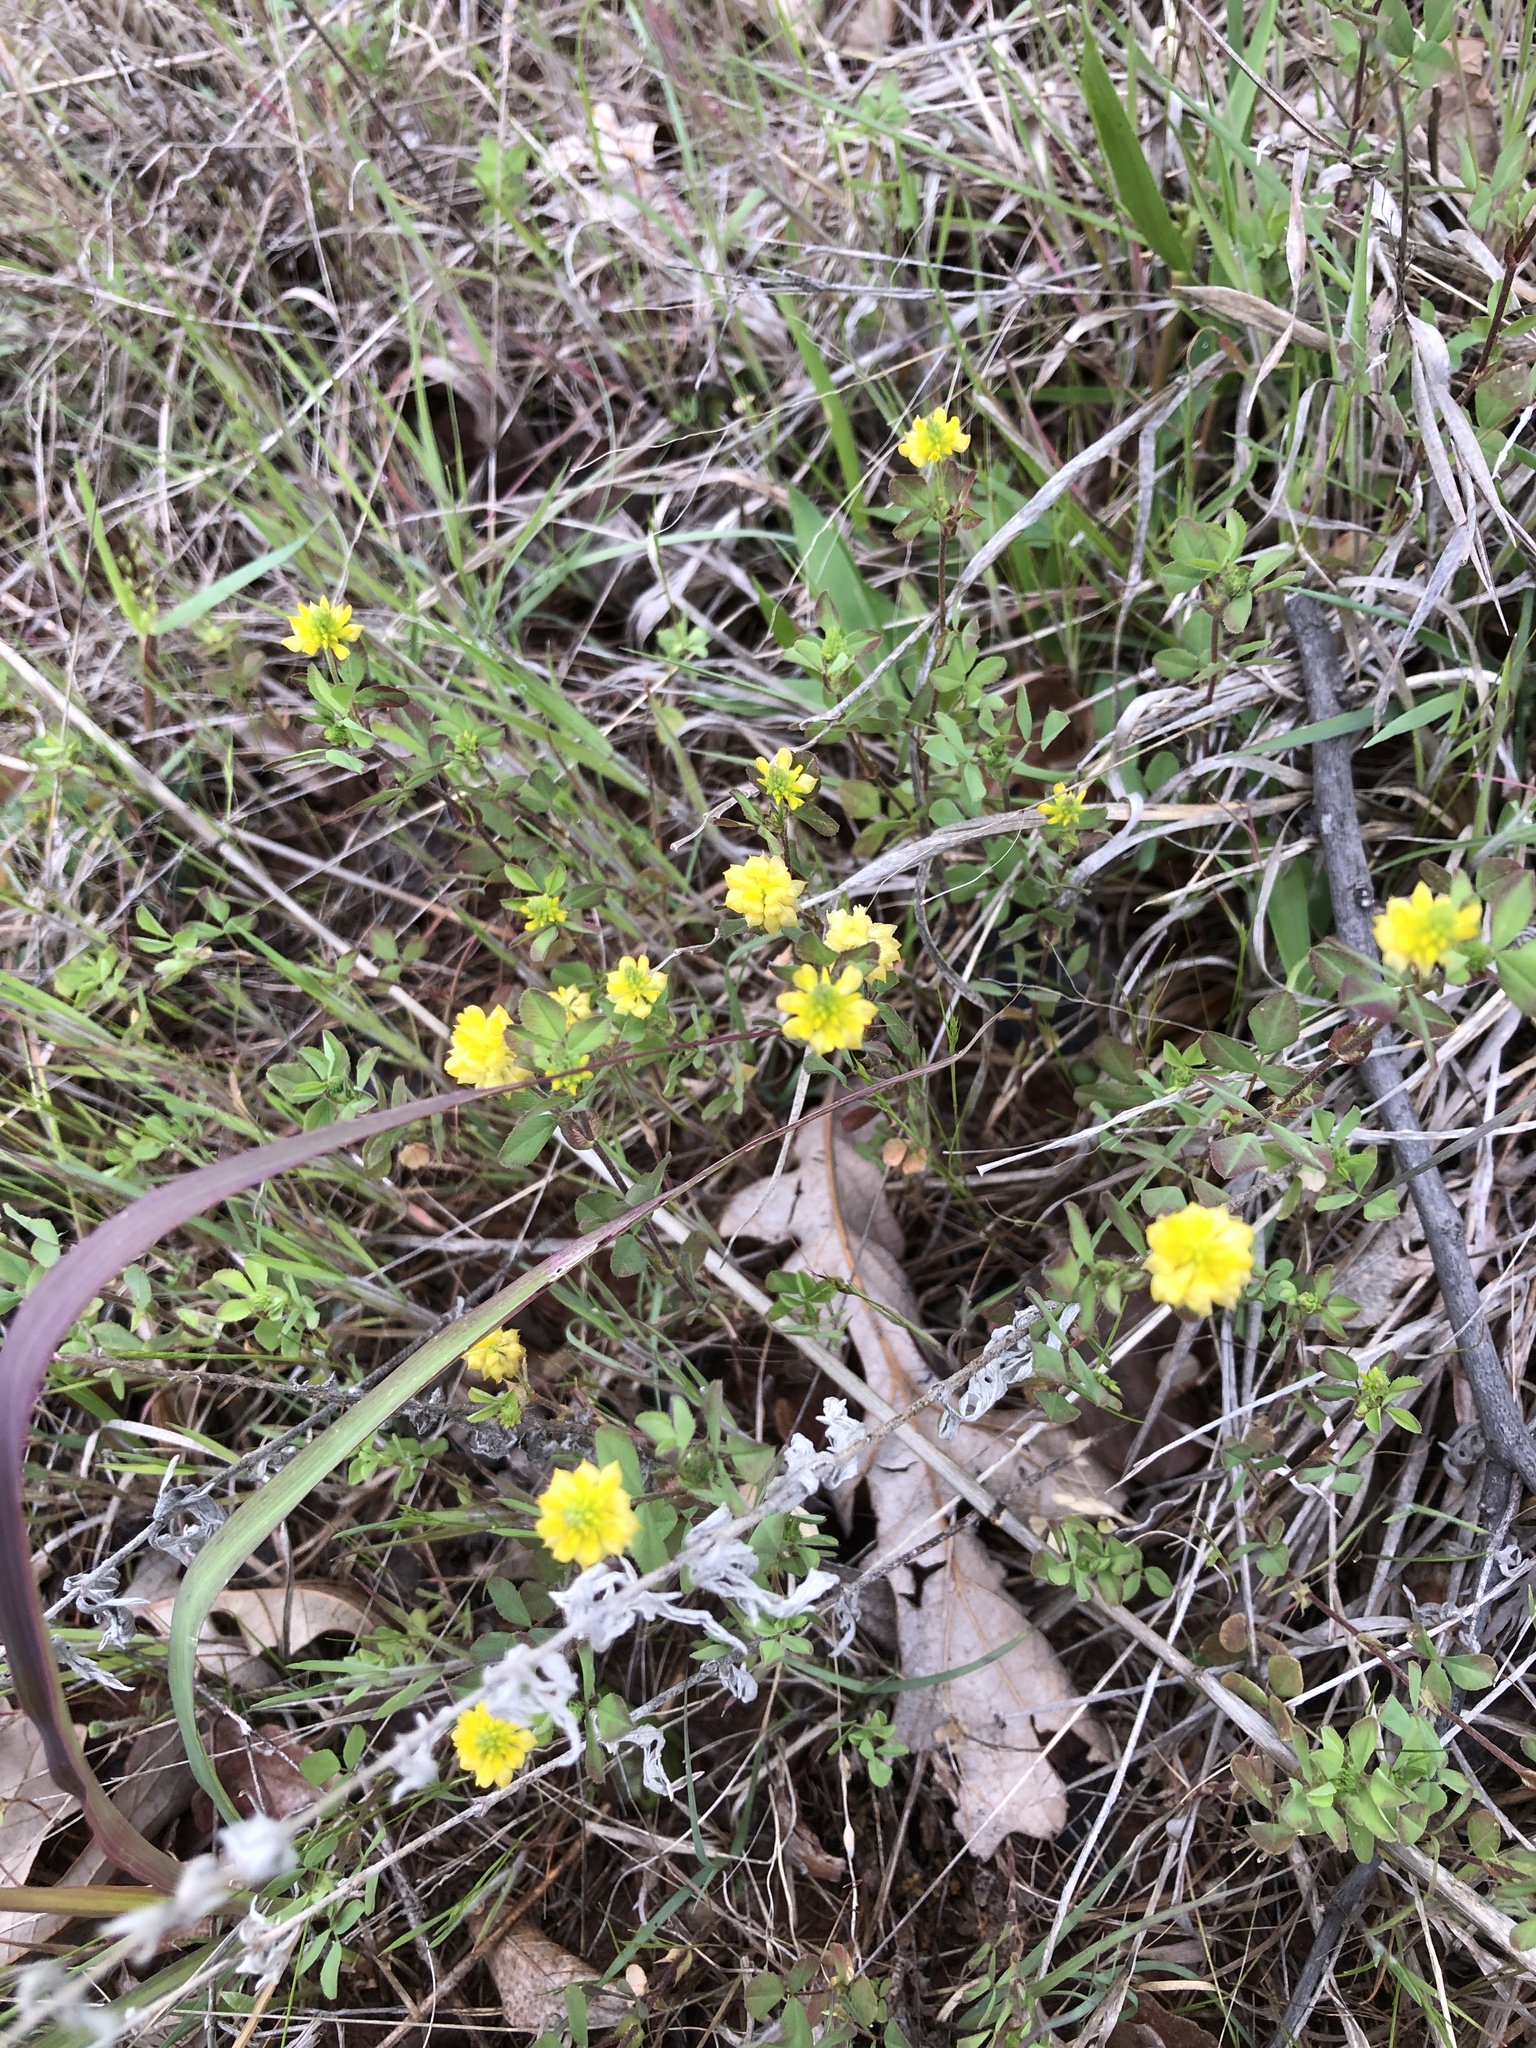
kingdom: Plantae
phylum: Tracheophyta
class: Magnoliopsida
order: Fabales
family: Fabaceae
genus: Trifolium
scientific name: Trifolium campestre
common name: Field clover
